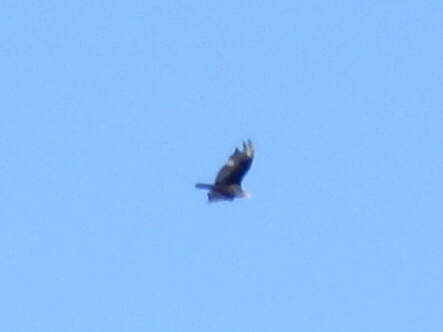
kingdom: Animalia
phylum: Chordata
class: Aves
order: Accipitriformes
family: Cathartidae
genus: Cathartes
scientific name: Cathartes aura
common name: Turkey vulture
